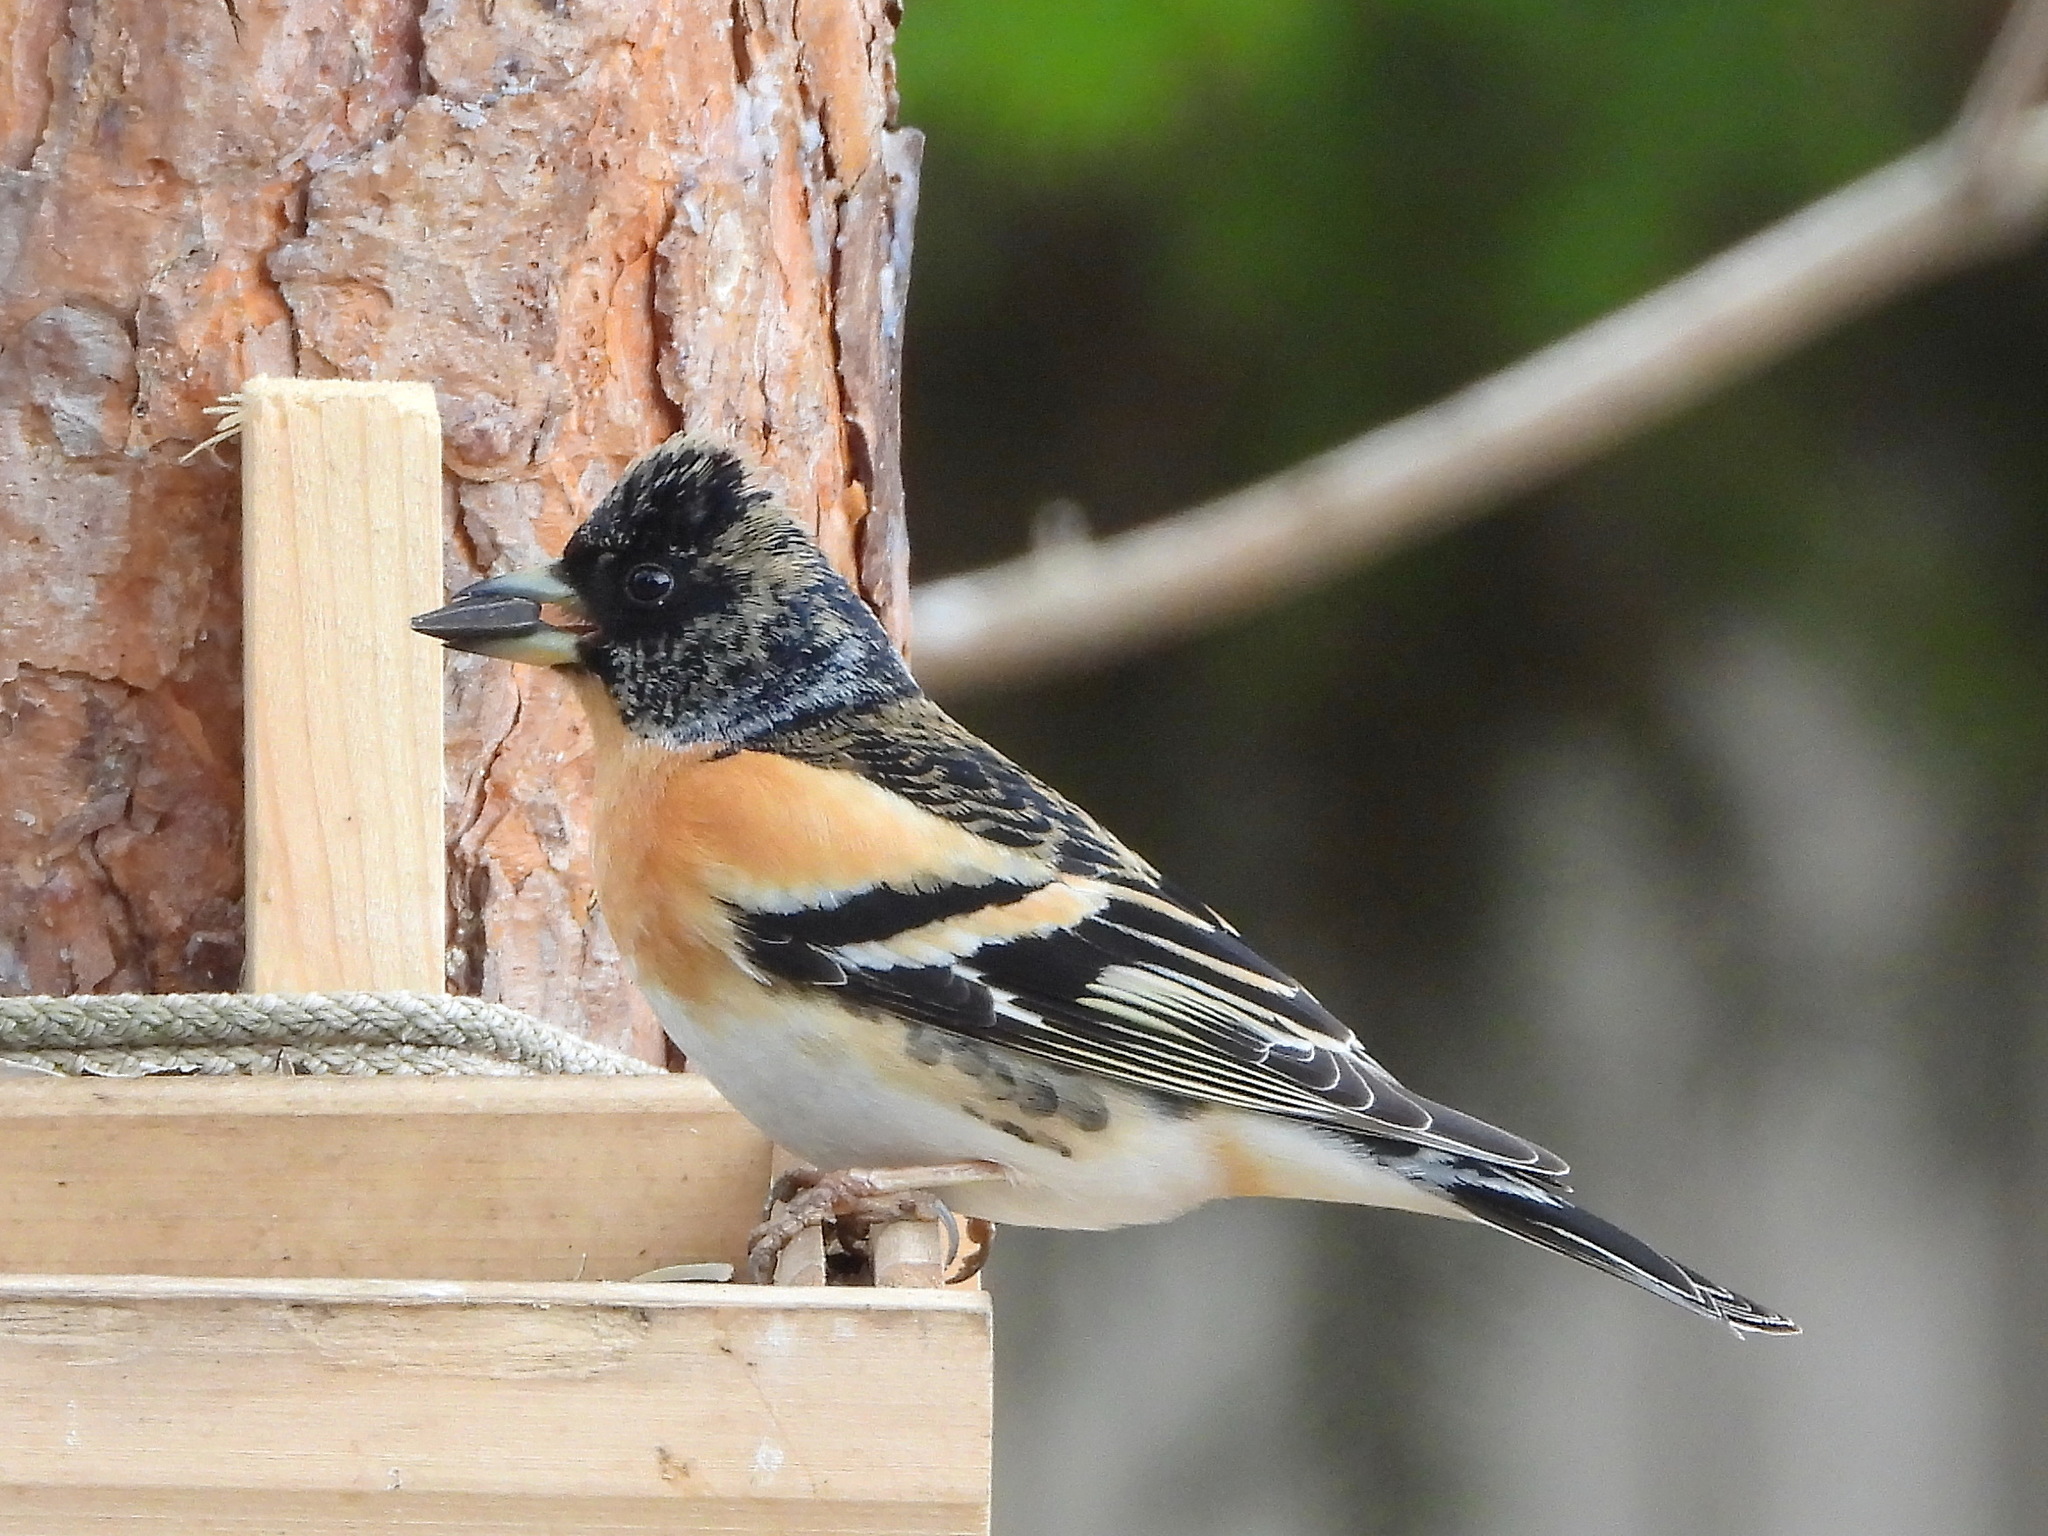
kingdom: Animalia
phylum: Chordata
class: Aves
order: Passeriformes
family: Fringillidae
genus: Fringilla
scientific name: Fringilla montifringilla
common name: Brambling
